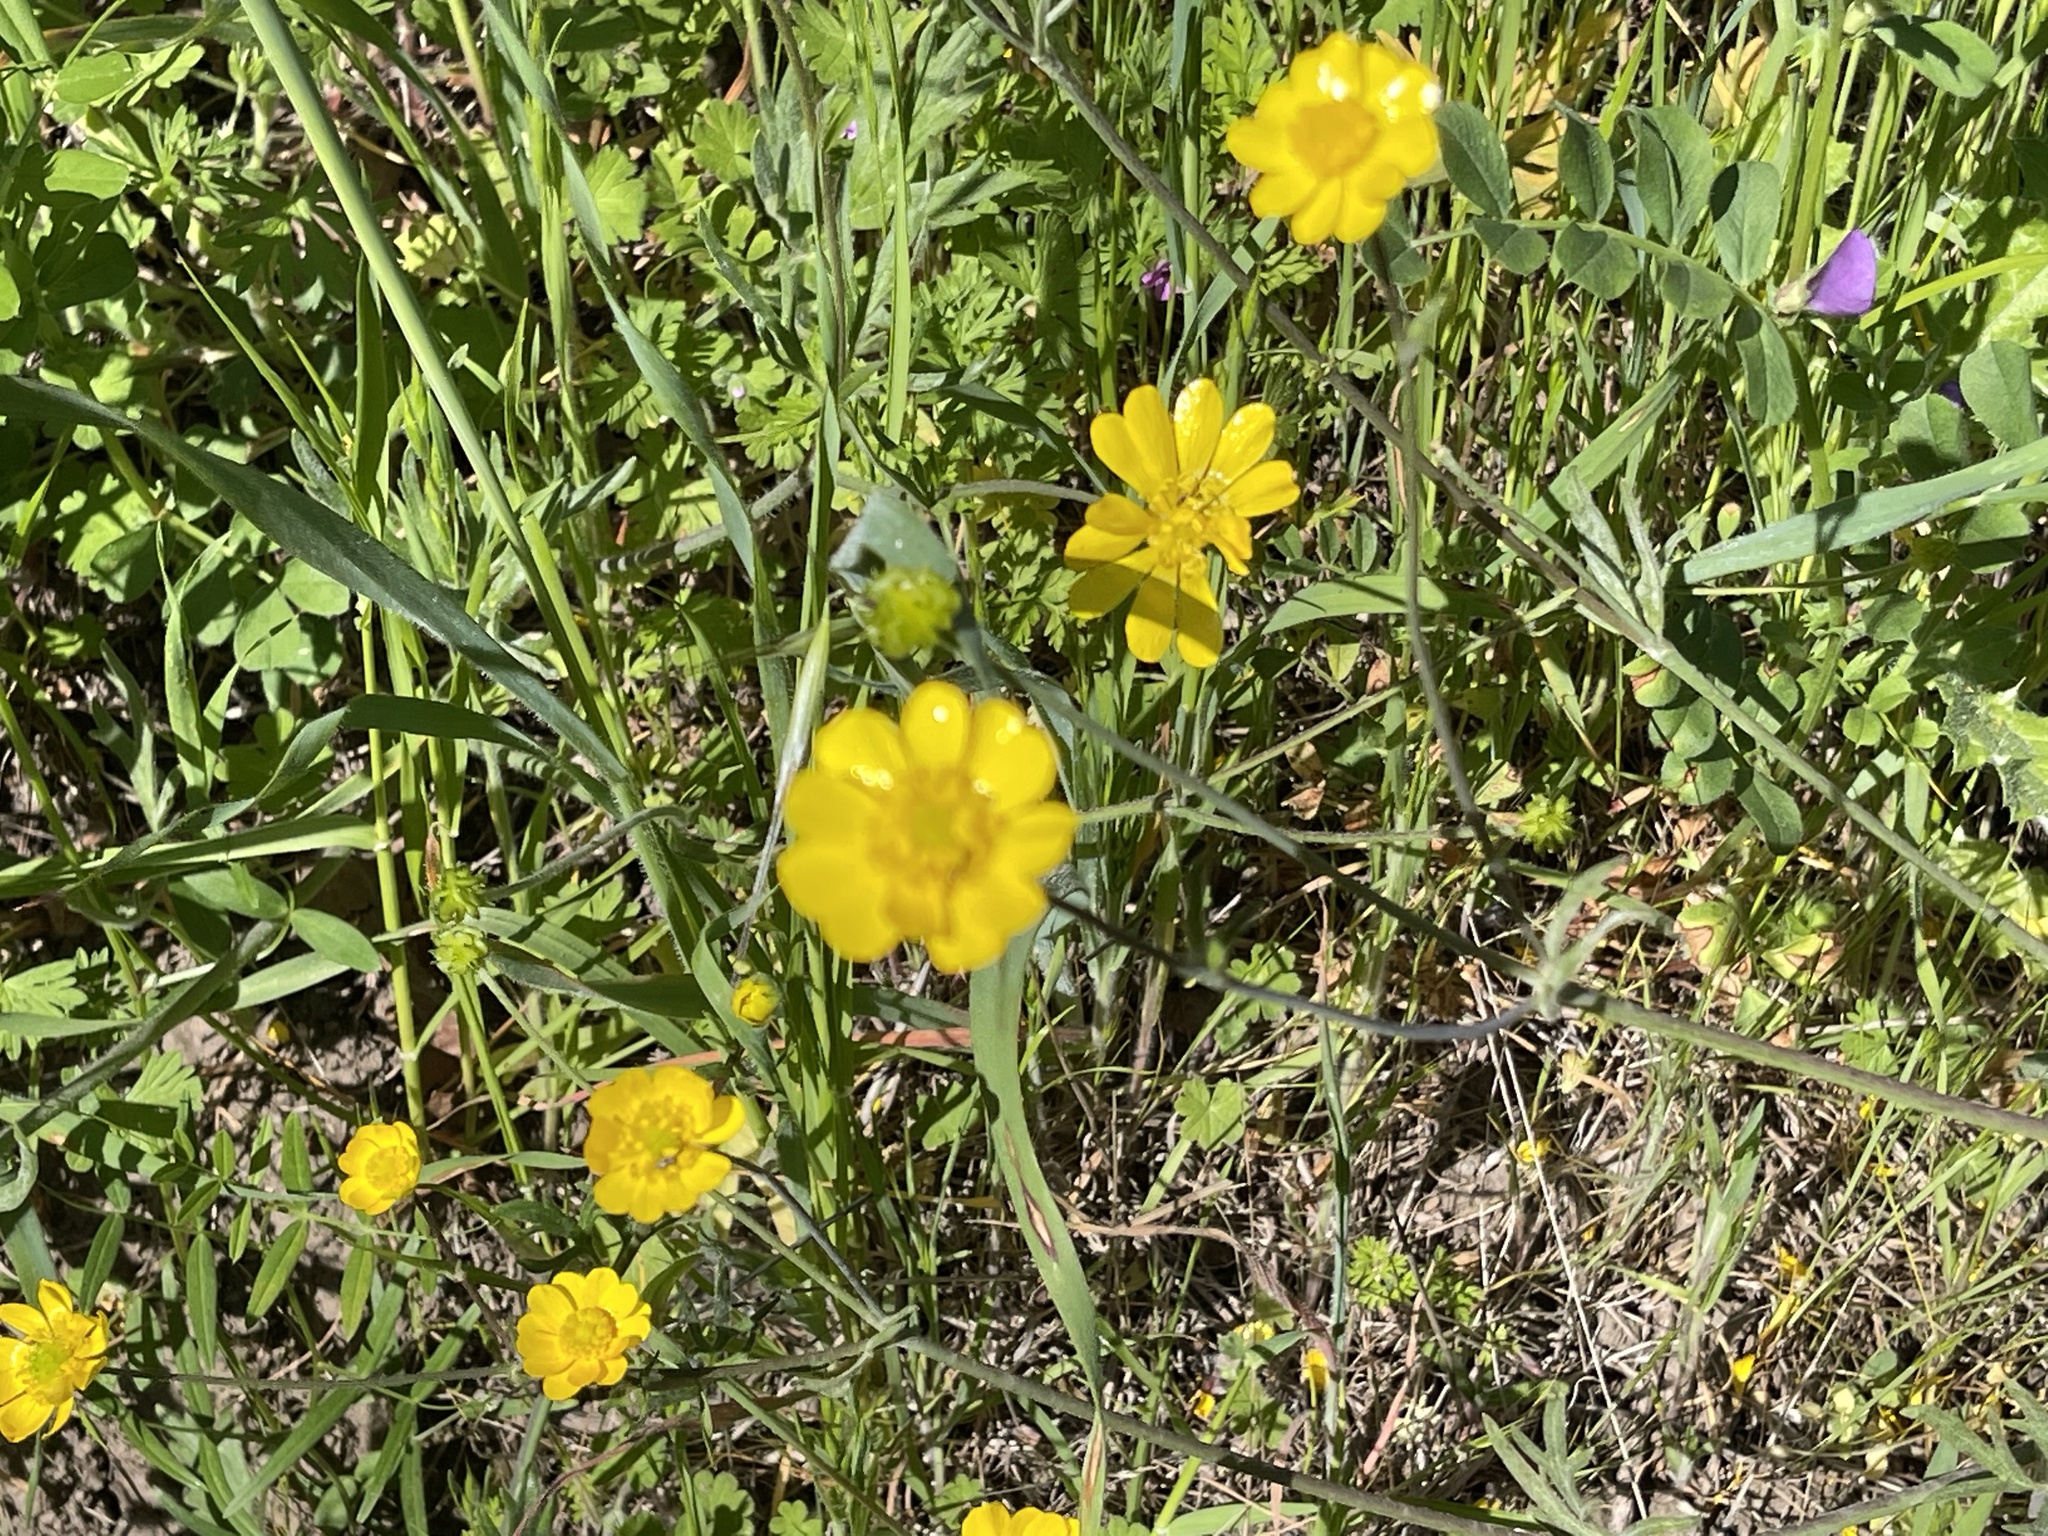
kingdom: Plantae
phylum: Tracheophyta
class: Magnoliopsida
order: Ranunculales
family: Ranunculaceae
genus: Ranunculus
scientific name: Ranunculus californicus
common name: California buttercup
